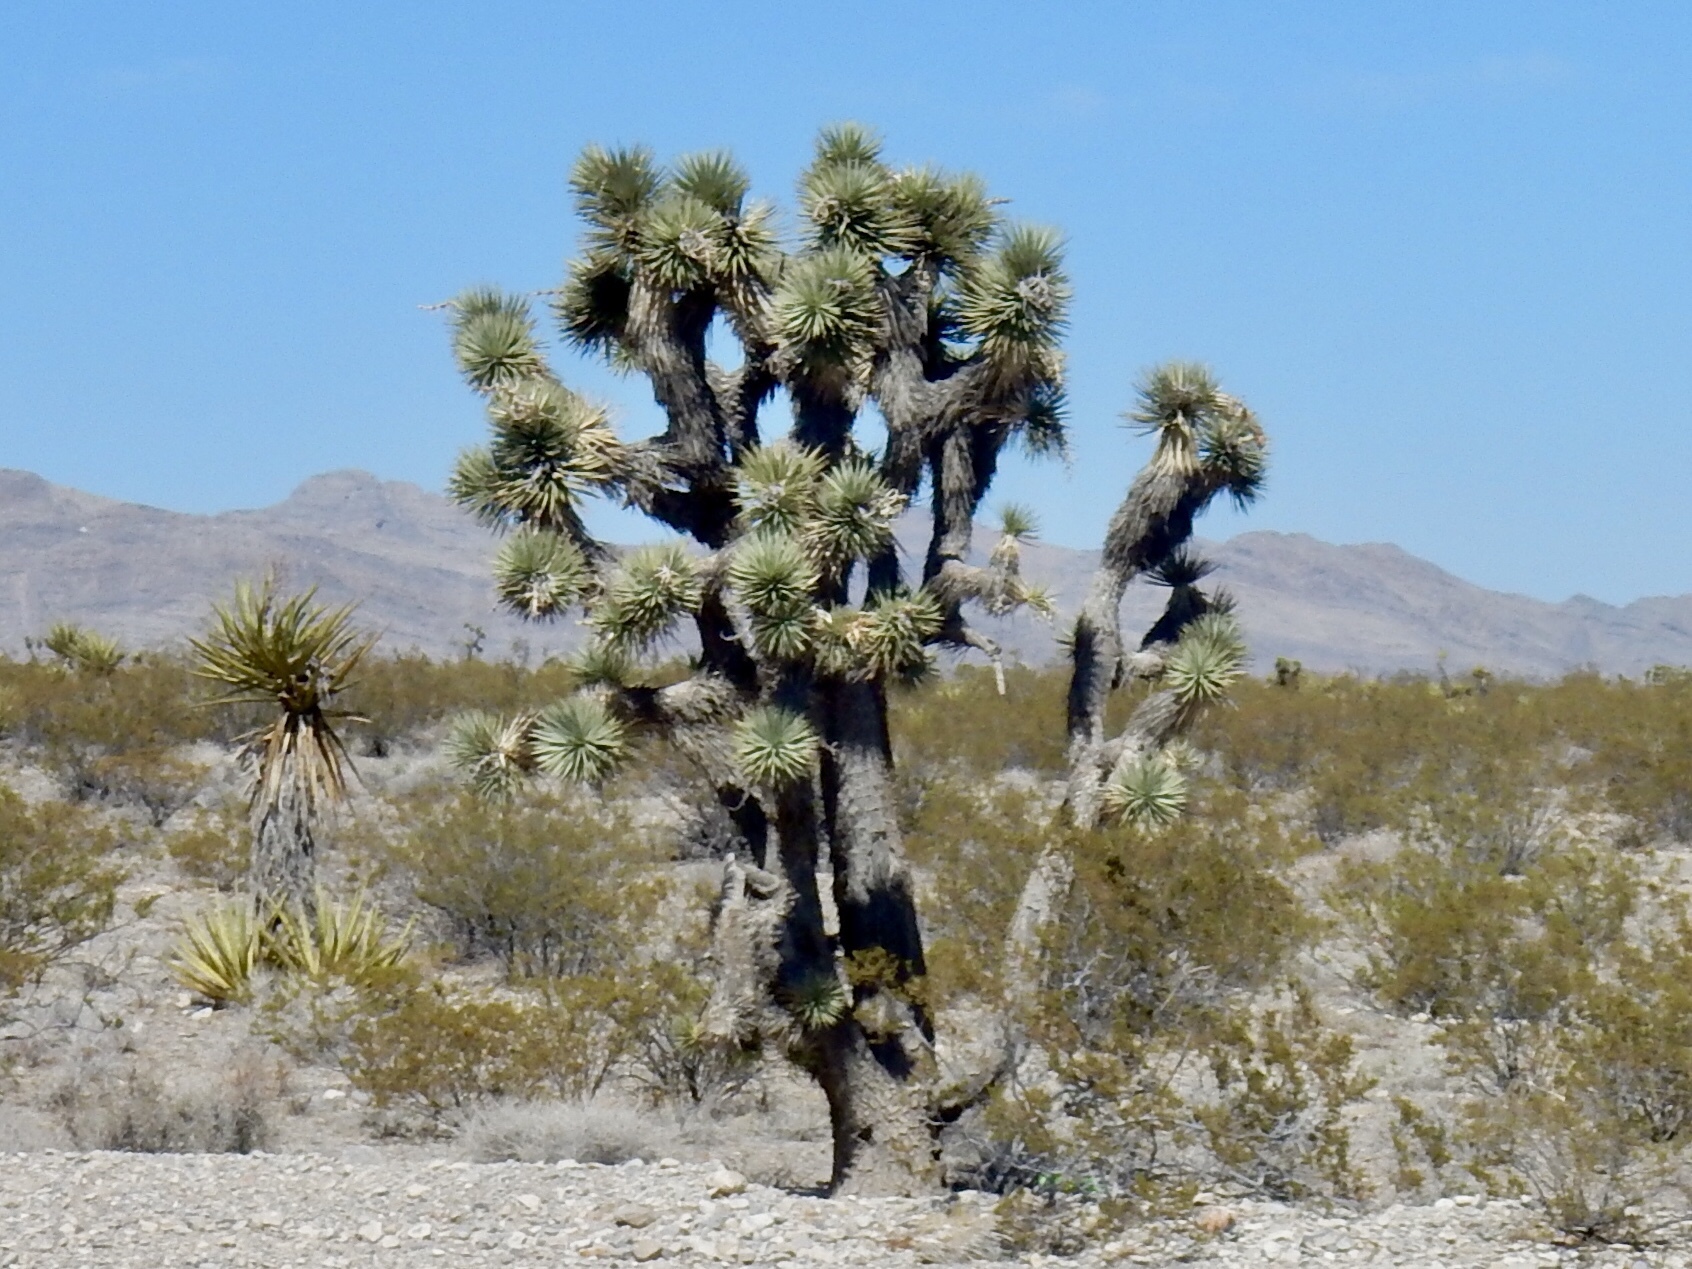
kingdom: Plantae
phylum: Tracheophyta
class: Liliopsida
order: Asparagales
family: Asparagaceae
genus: Yucca
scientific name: Yucca brevifolia
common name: Joshua tree
